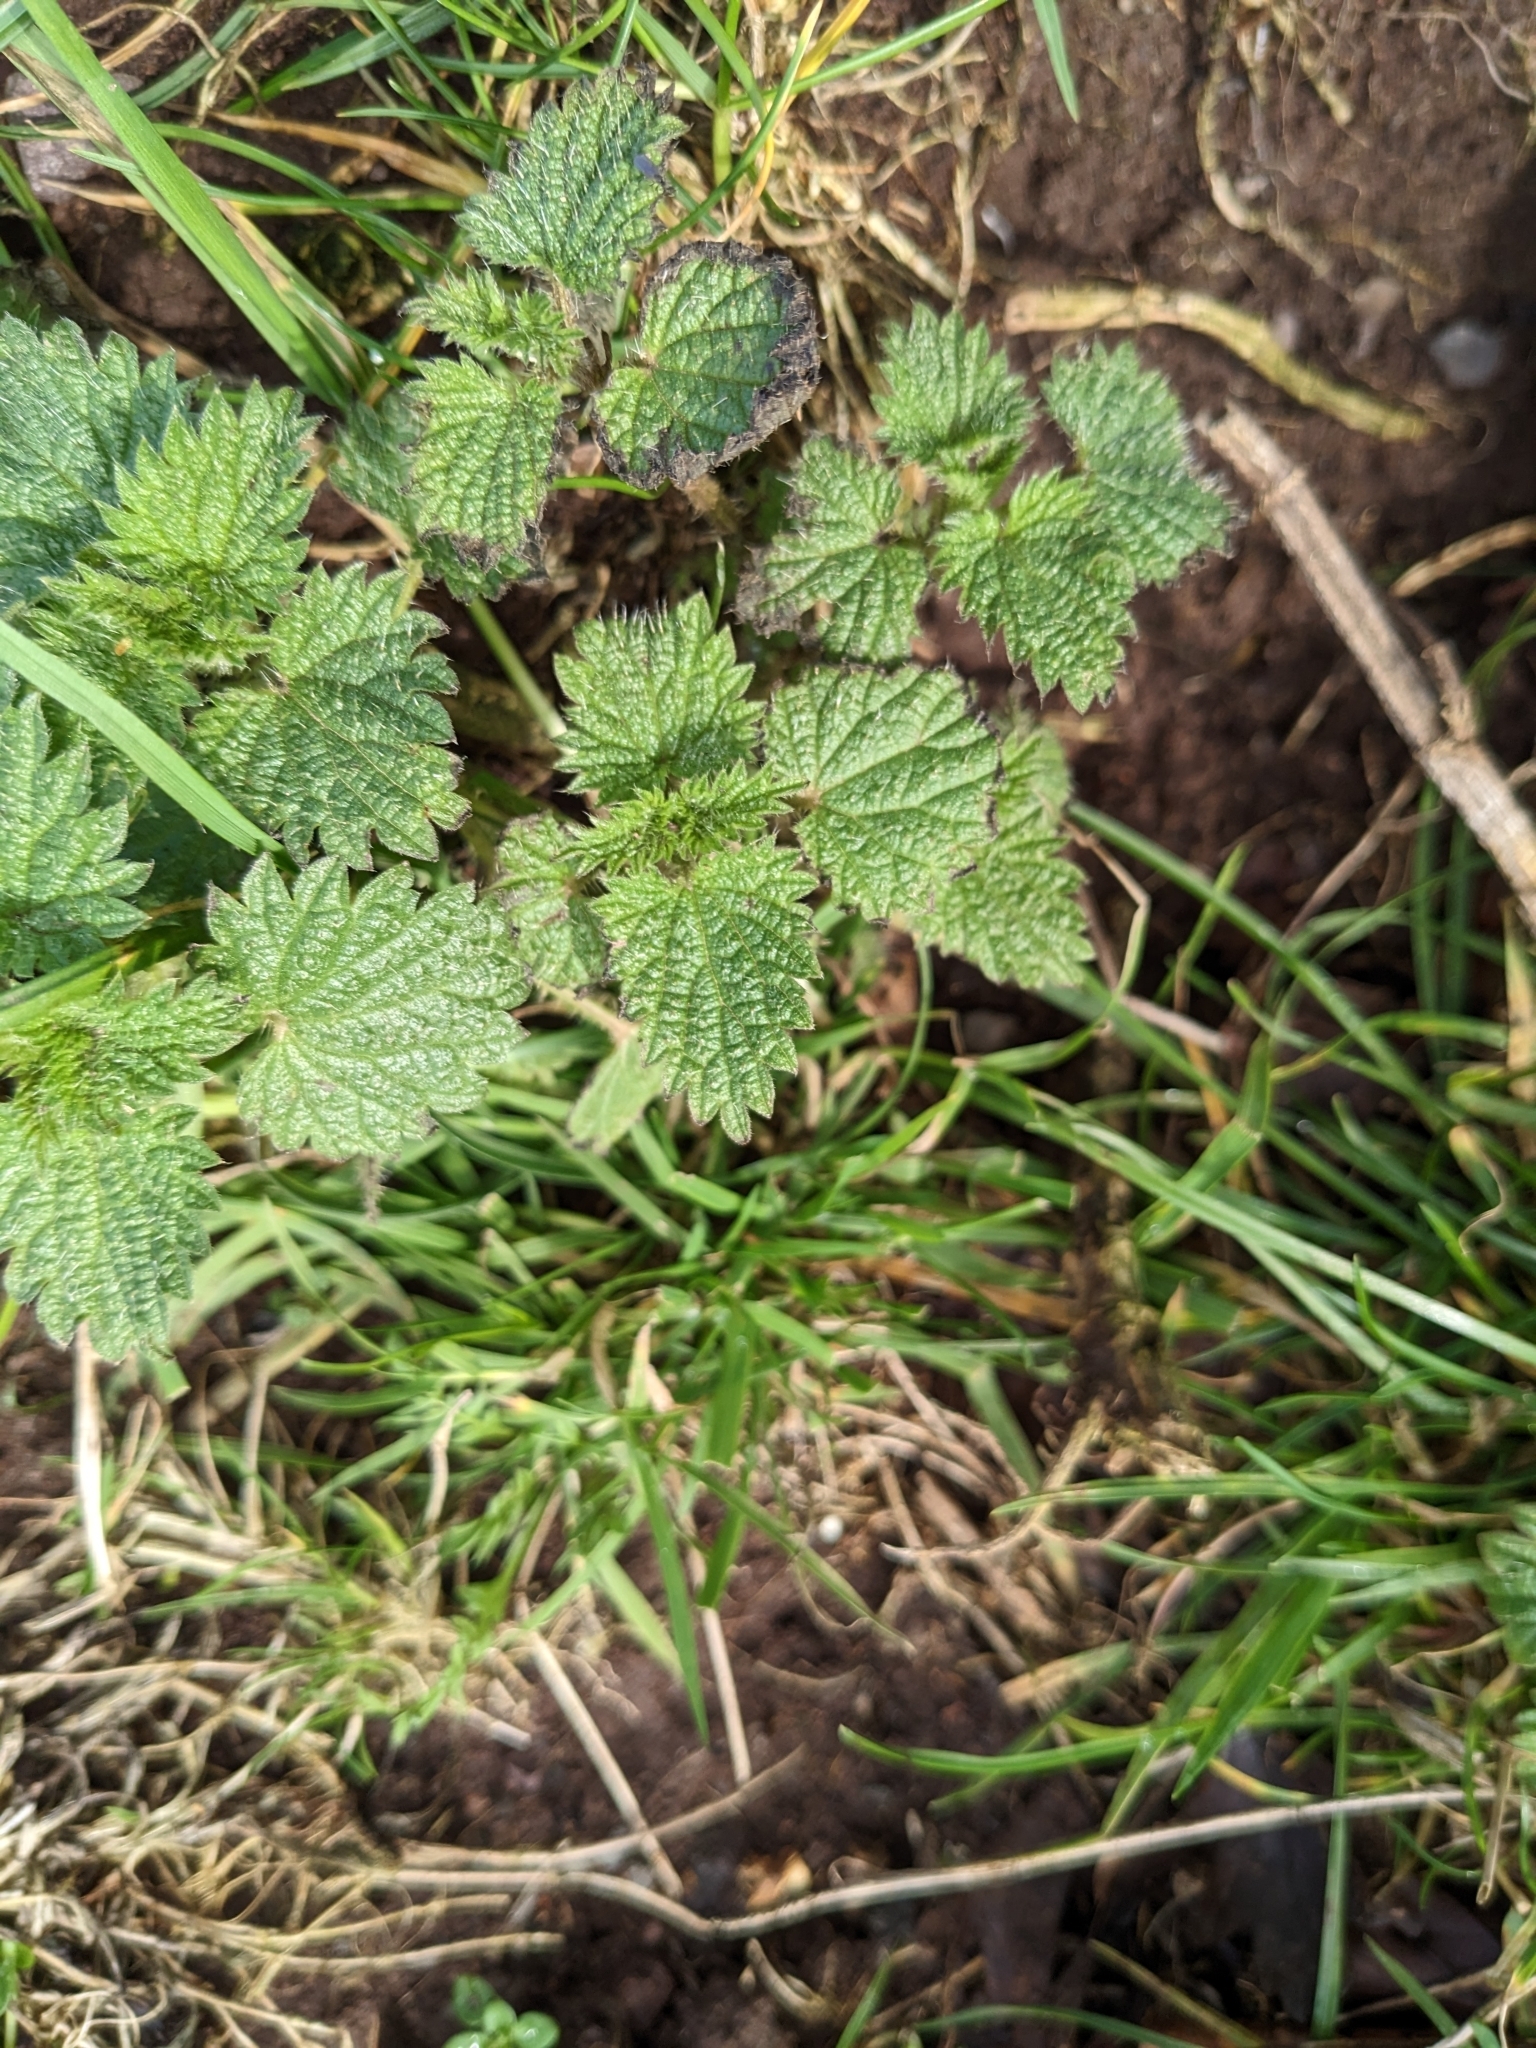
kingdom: Plantae
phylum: Tracheophyta
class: Magnoliopsida
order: Rosales
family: Urticaceae
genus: Urtica
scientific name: Urtica dioica
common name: Common nettle
